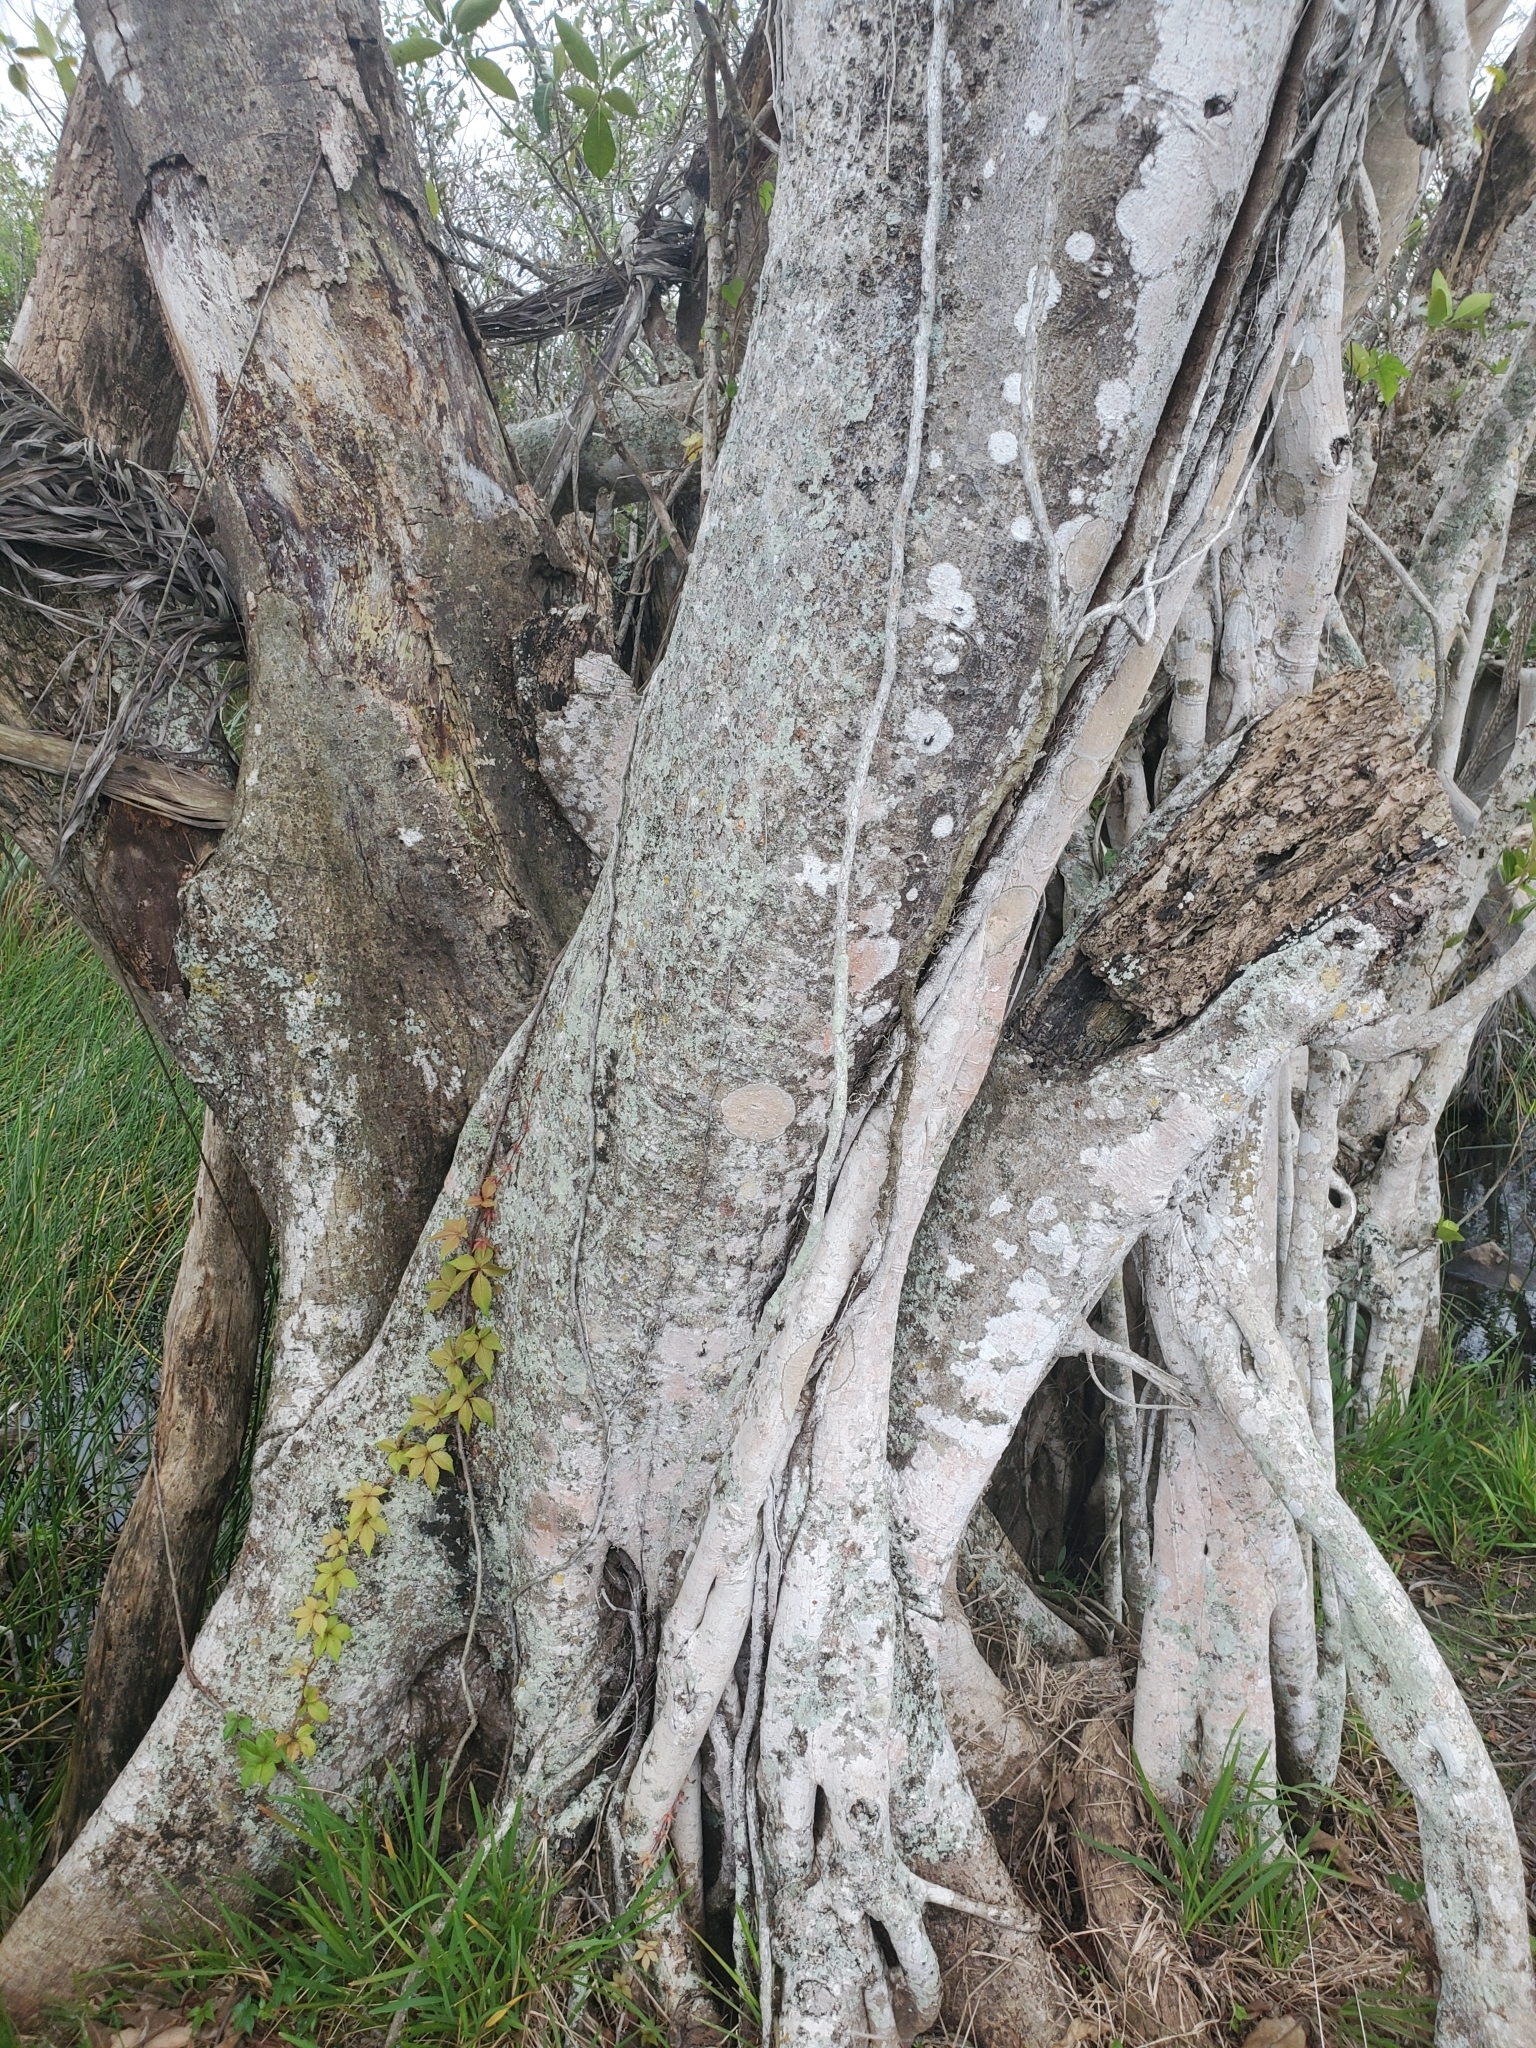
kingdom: Plantae
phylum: Tracheophyta
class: Magnoliopsida
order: Rosales
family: Moraceae
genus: Ficus
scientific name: Ficus aurea
